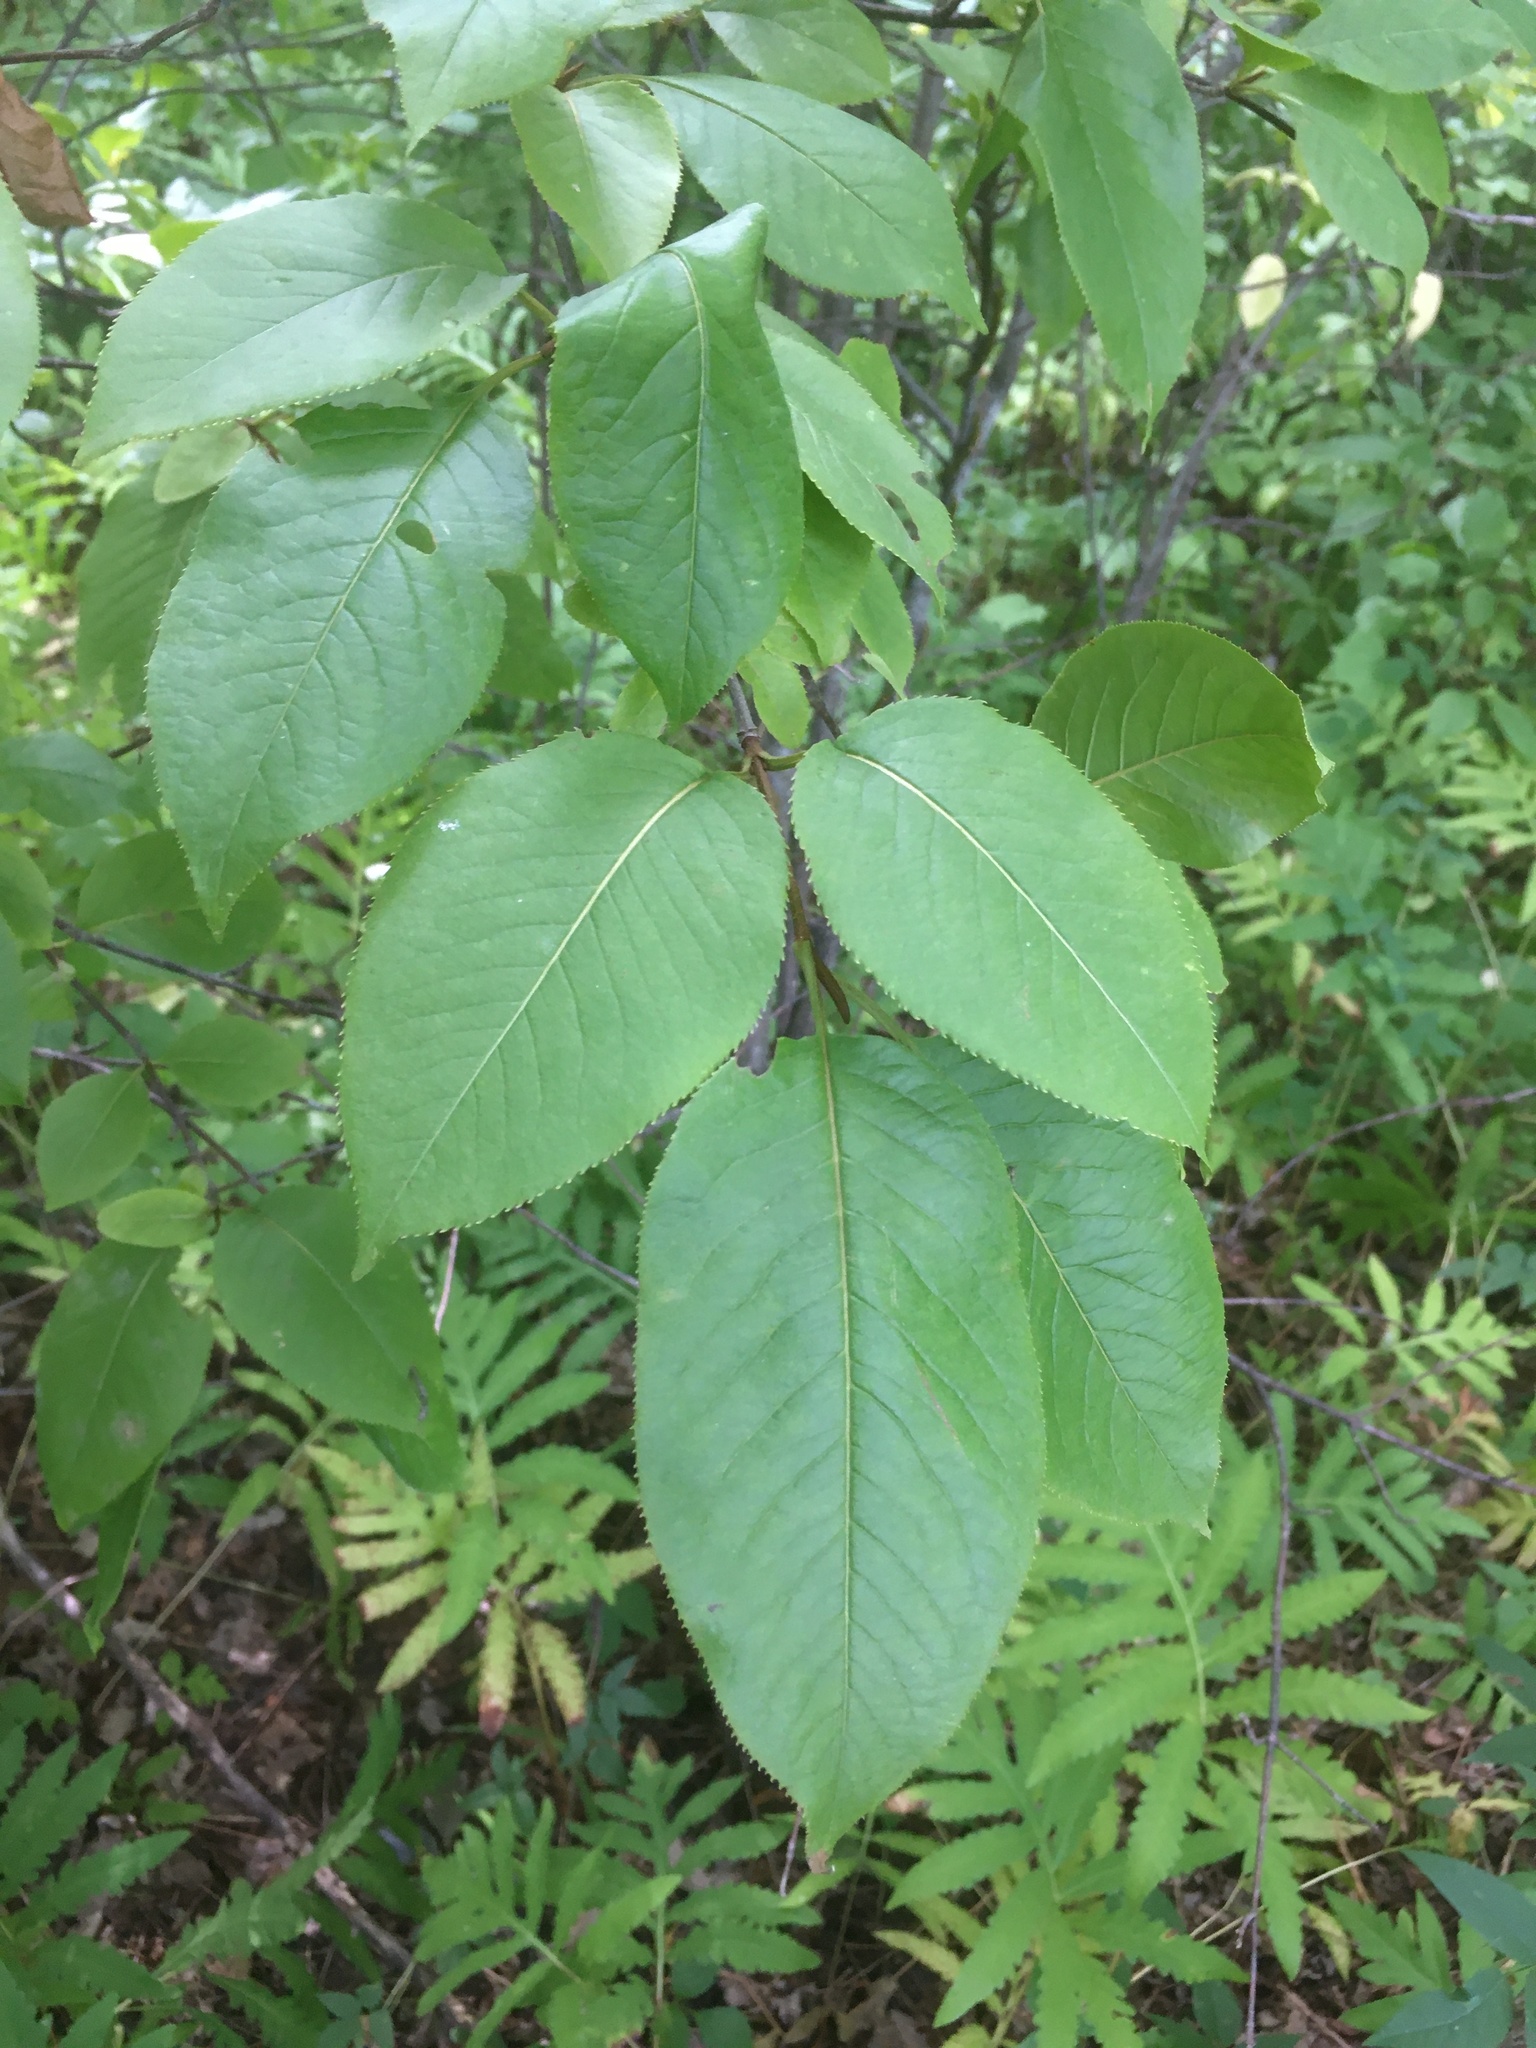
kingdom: Plantae
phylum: Tracheophyta
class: Magnoliopsida
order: Dipsacales
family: Viburnaceae
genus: Viburnum
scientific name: Viburnum lentago
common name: Black haw
